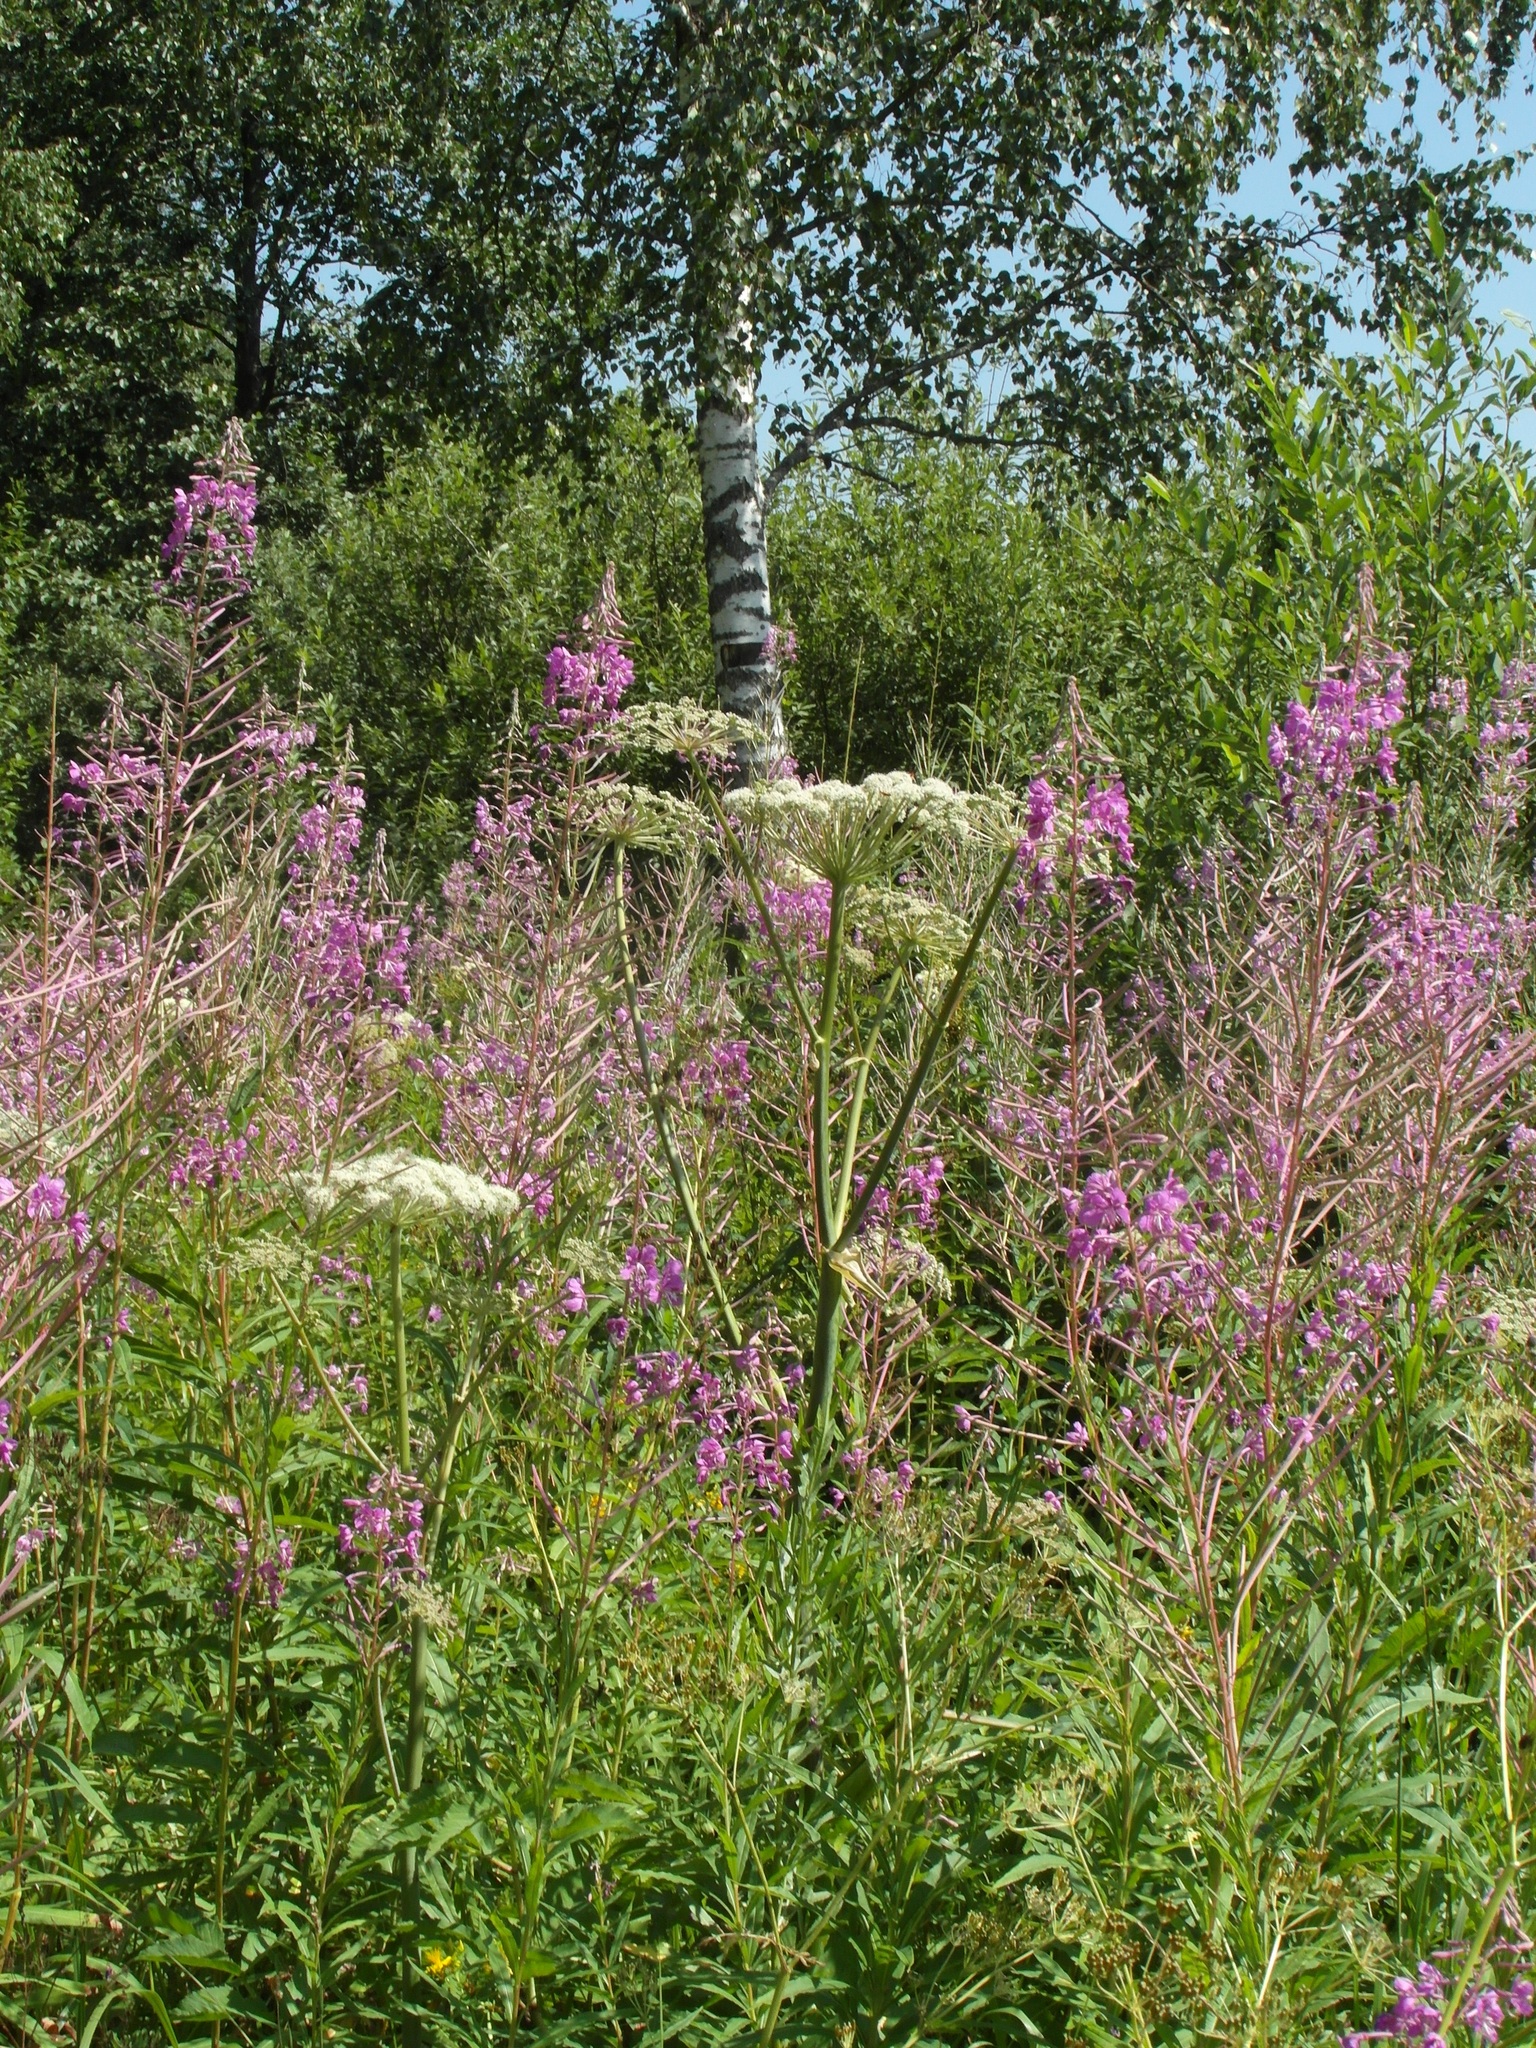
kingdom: Plantae
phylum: Tracheophyta
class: Magnoliopsida
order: Apiales
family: Apiaceae
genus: Angelica
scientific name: Angelica sylvestris
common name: Wild angelica
